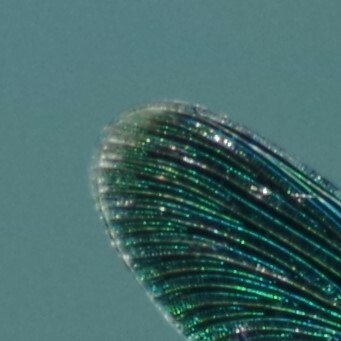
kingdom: Animalia
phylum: Arthropoda
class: Insecta
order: Odonata
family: Calopterygidae
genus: Calopteryx
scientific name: Calopteryx splendens
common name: Banded demoiselle
